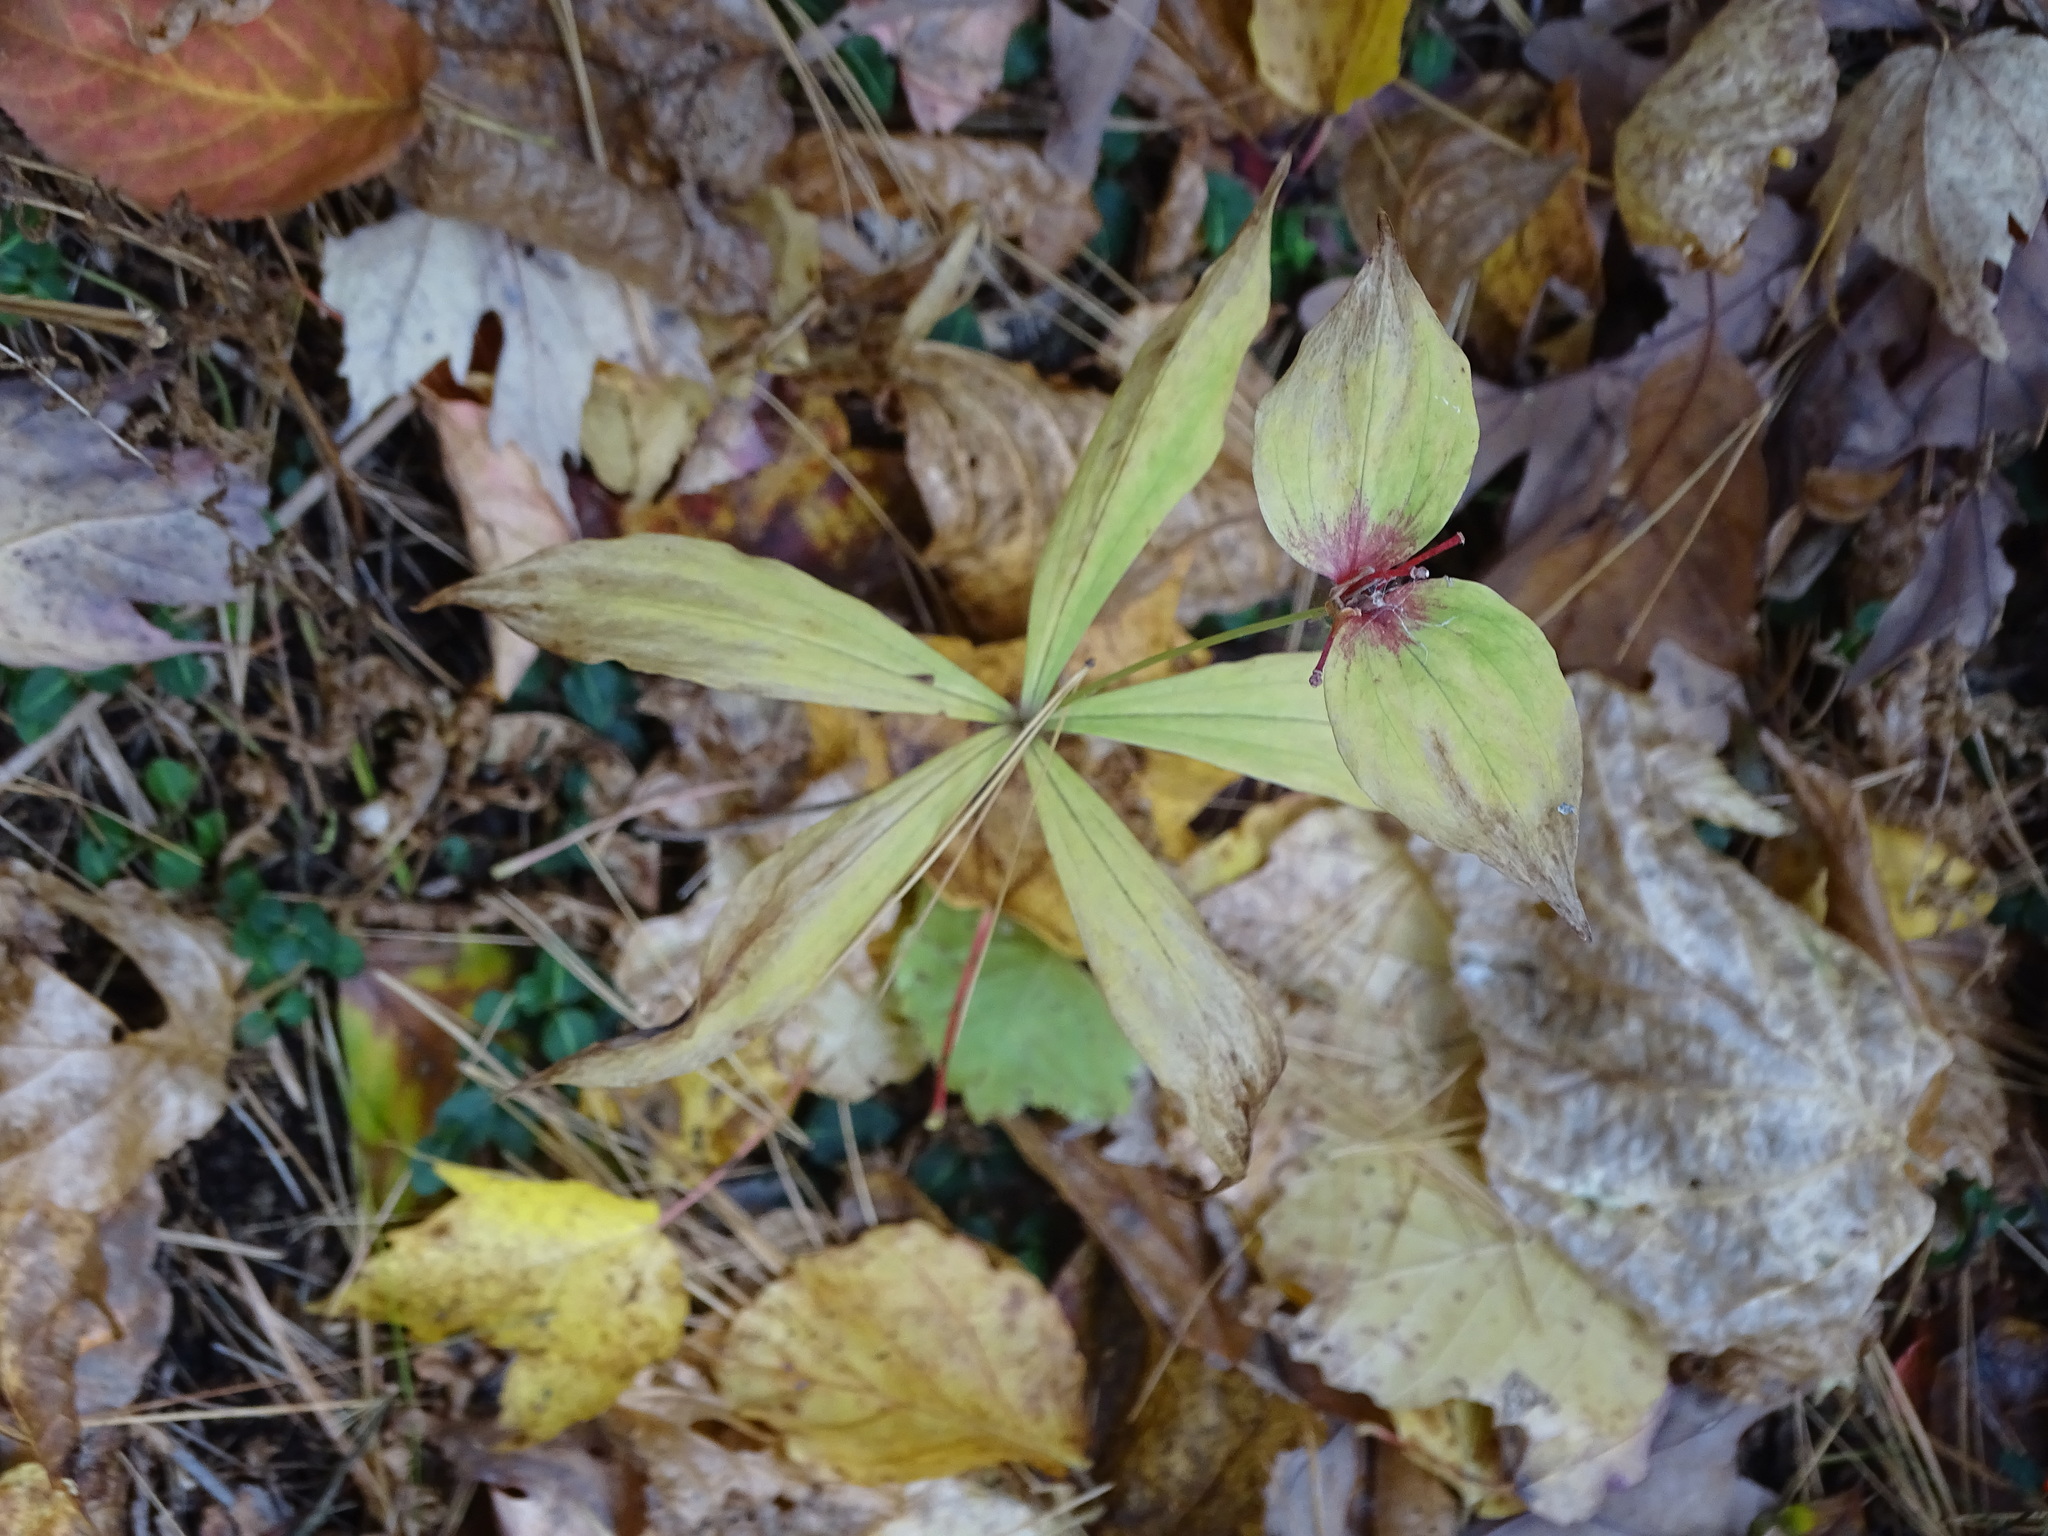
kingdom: Plantae
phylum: Tracheophyta
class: Liliopsida
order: Liliales
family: Liliaceae
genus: Medeola
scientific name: Medeola virginiana
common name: Indian cucumber-root
